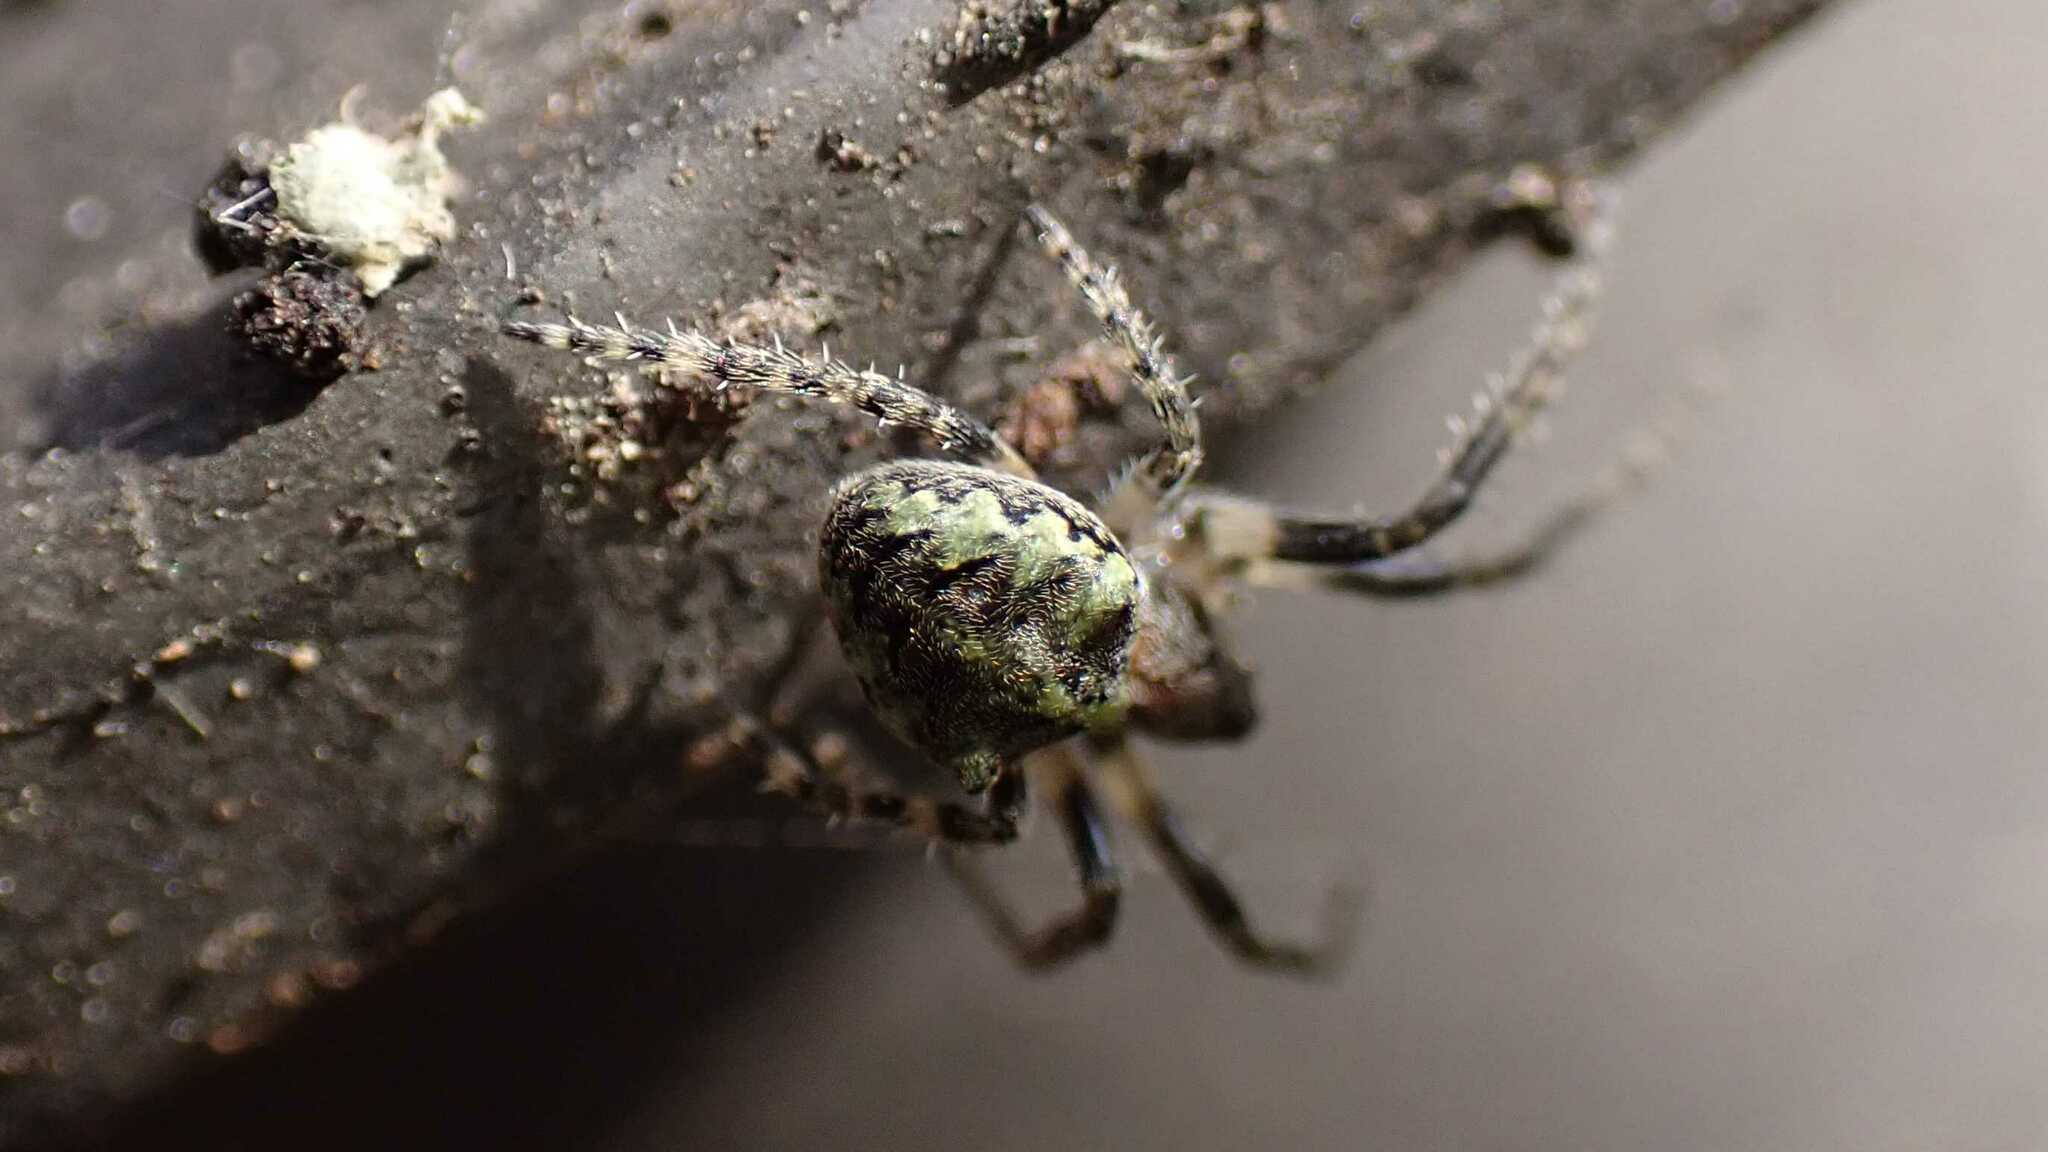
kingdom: Animalia
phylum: Arthropoda
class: Arachnida
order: Araneae
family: Araneidae
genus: Gibbaranea
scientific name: Gibbaranea gibbosa
